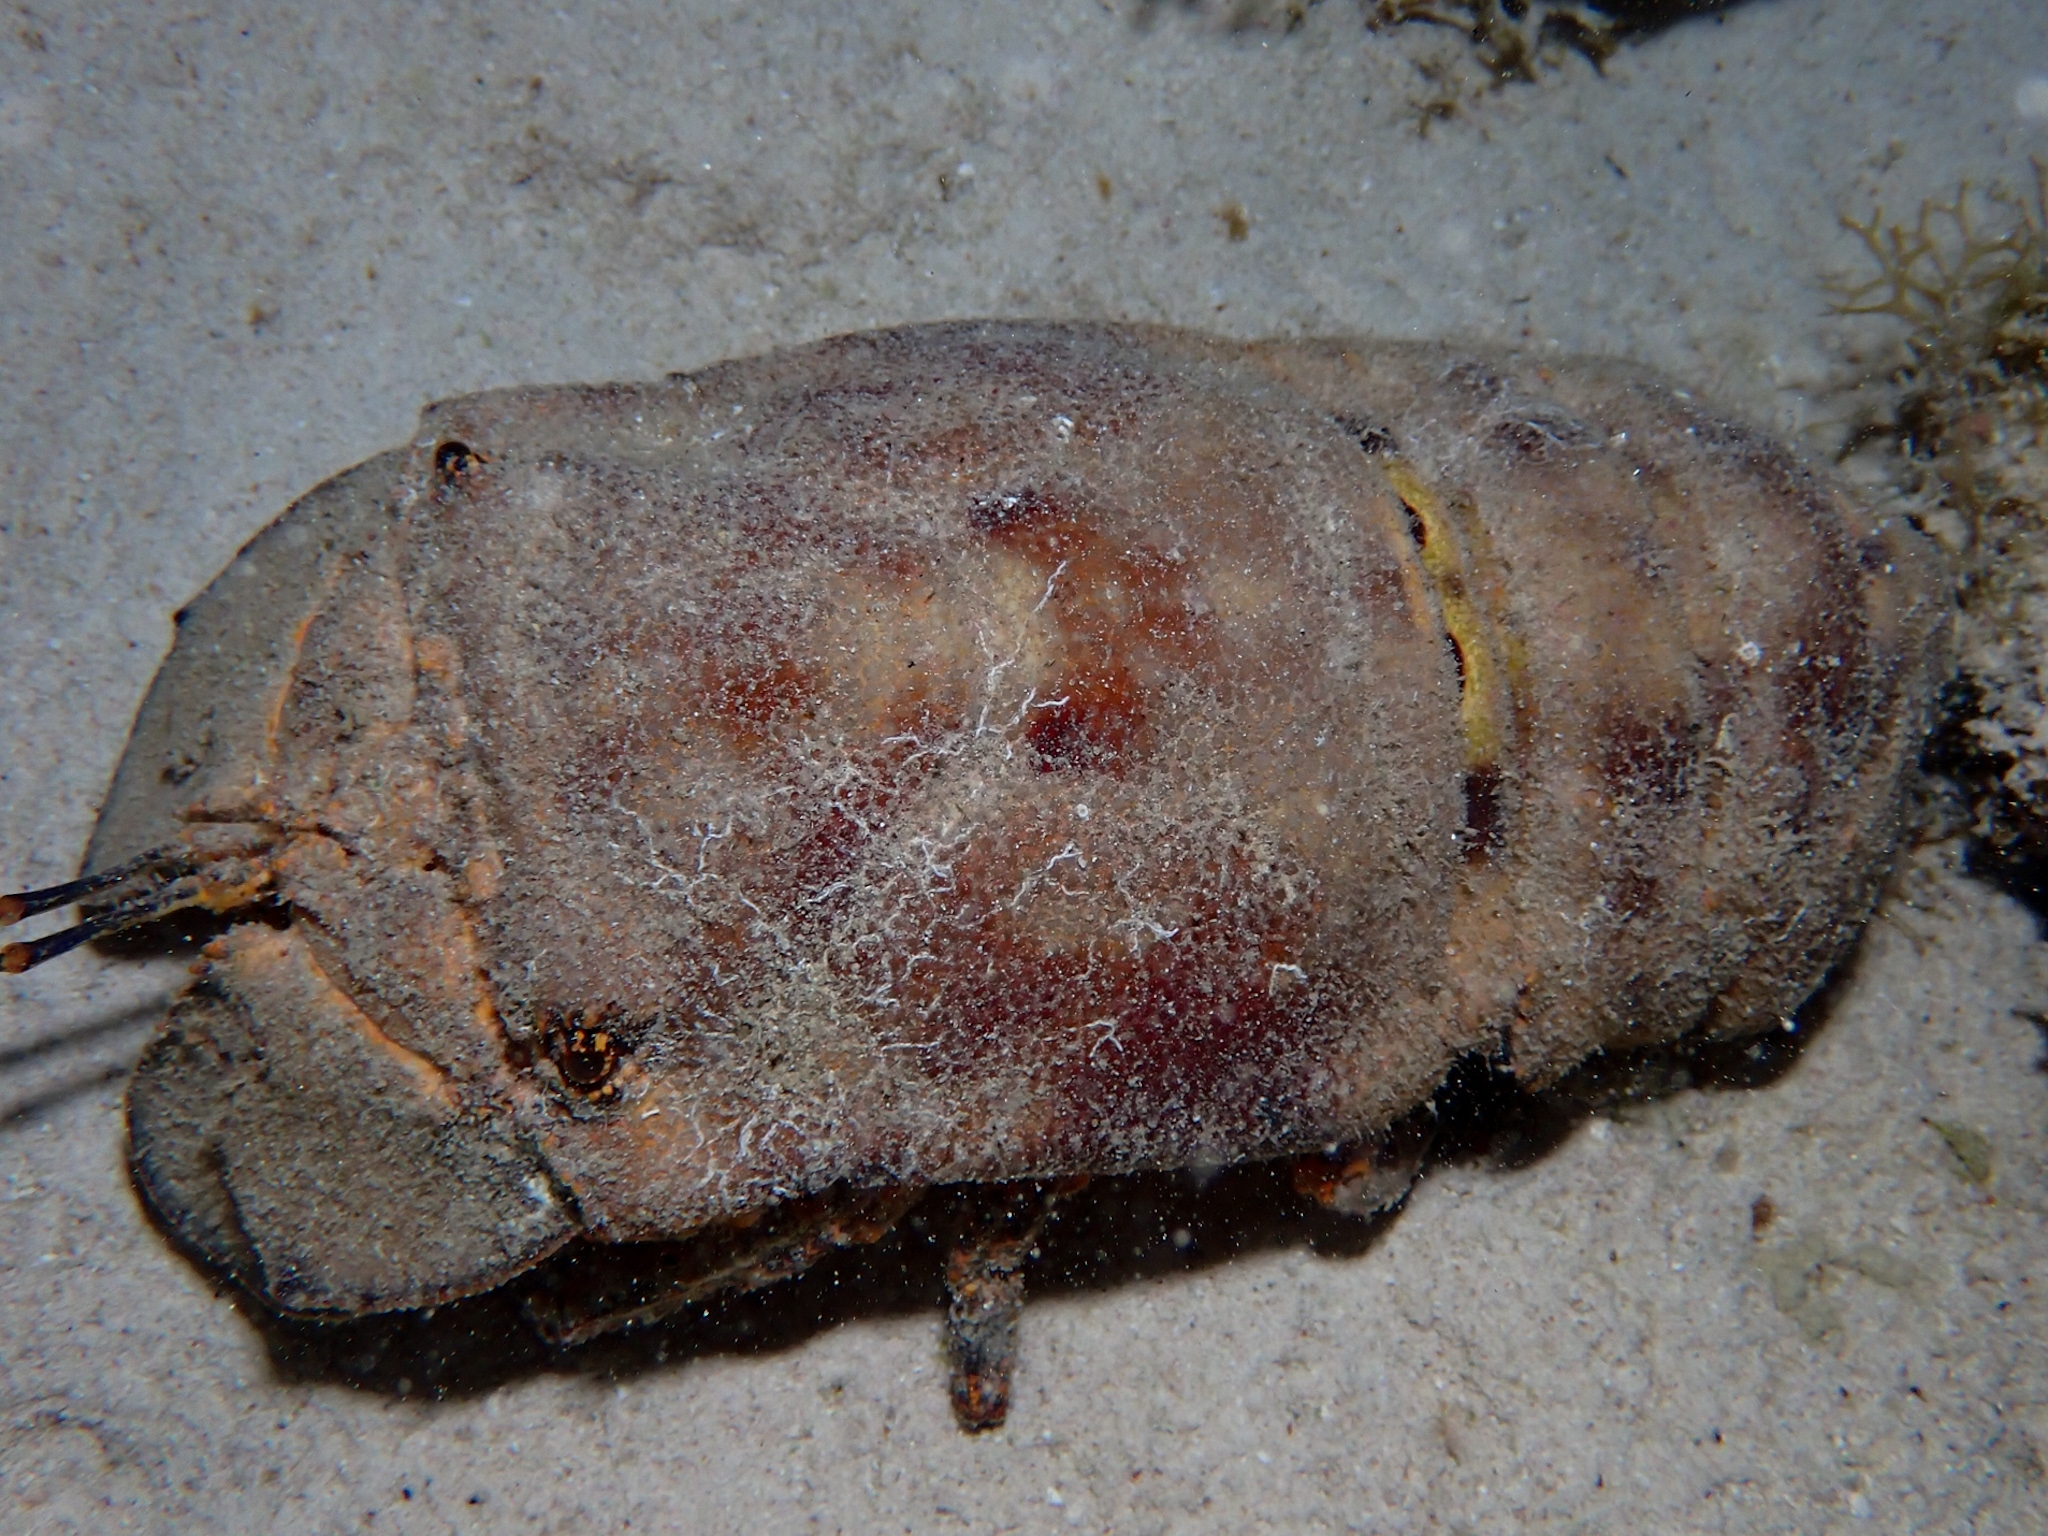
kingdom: Animalia
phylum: Arthropoda
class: Malacostraca
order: Decapoda
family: Scyllaridae
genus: Scyllarides
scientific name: Scyllarides aequinoctialis
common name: Spanish slipper lobster
